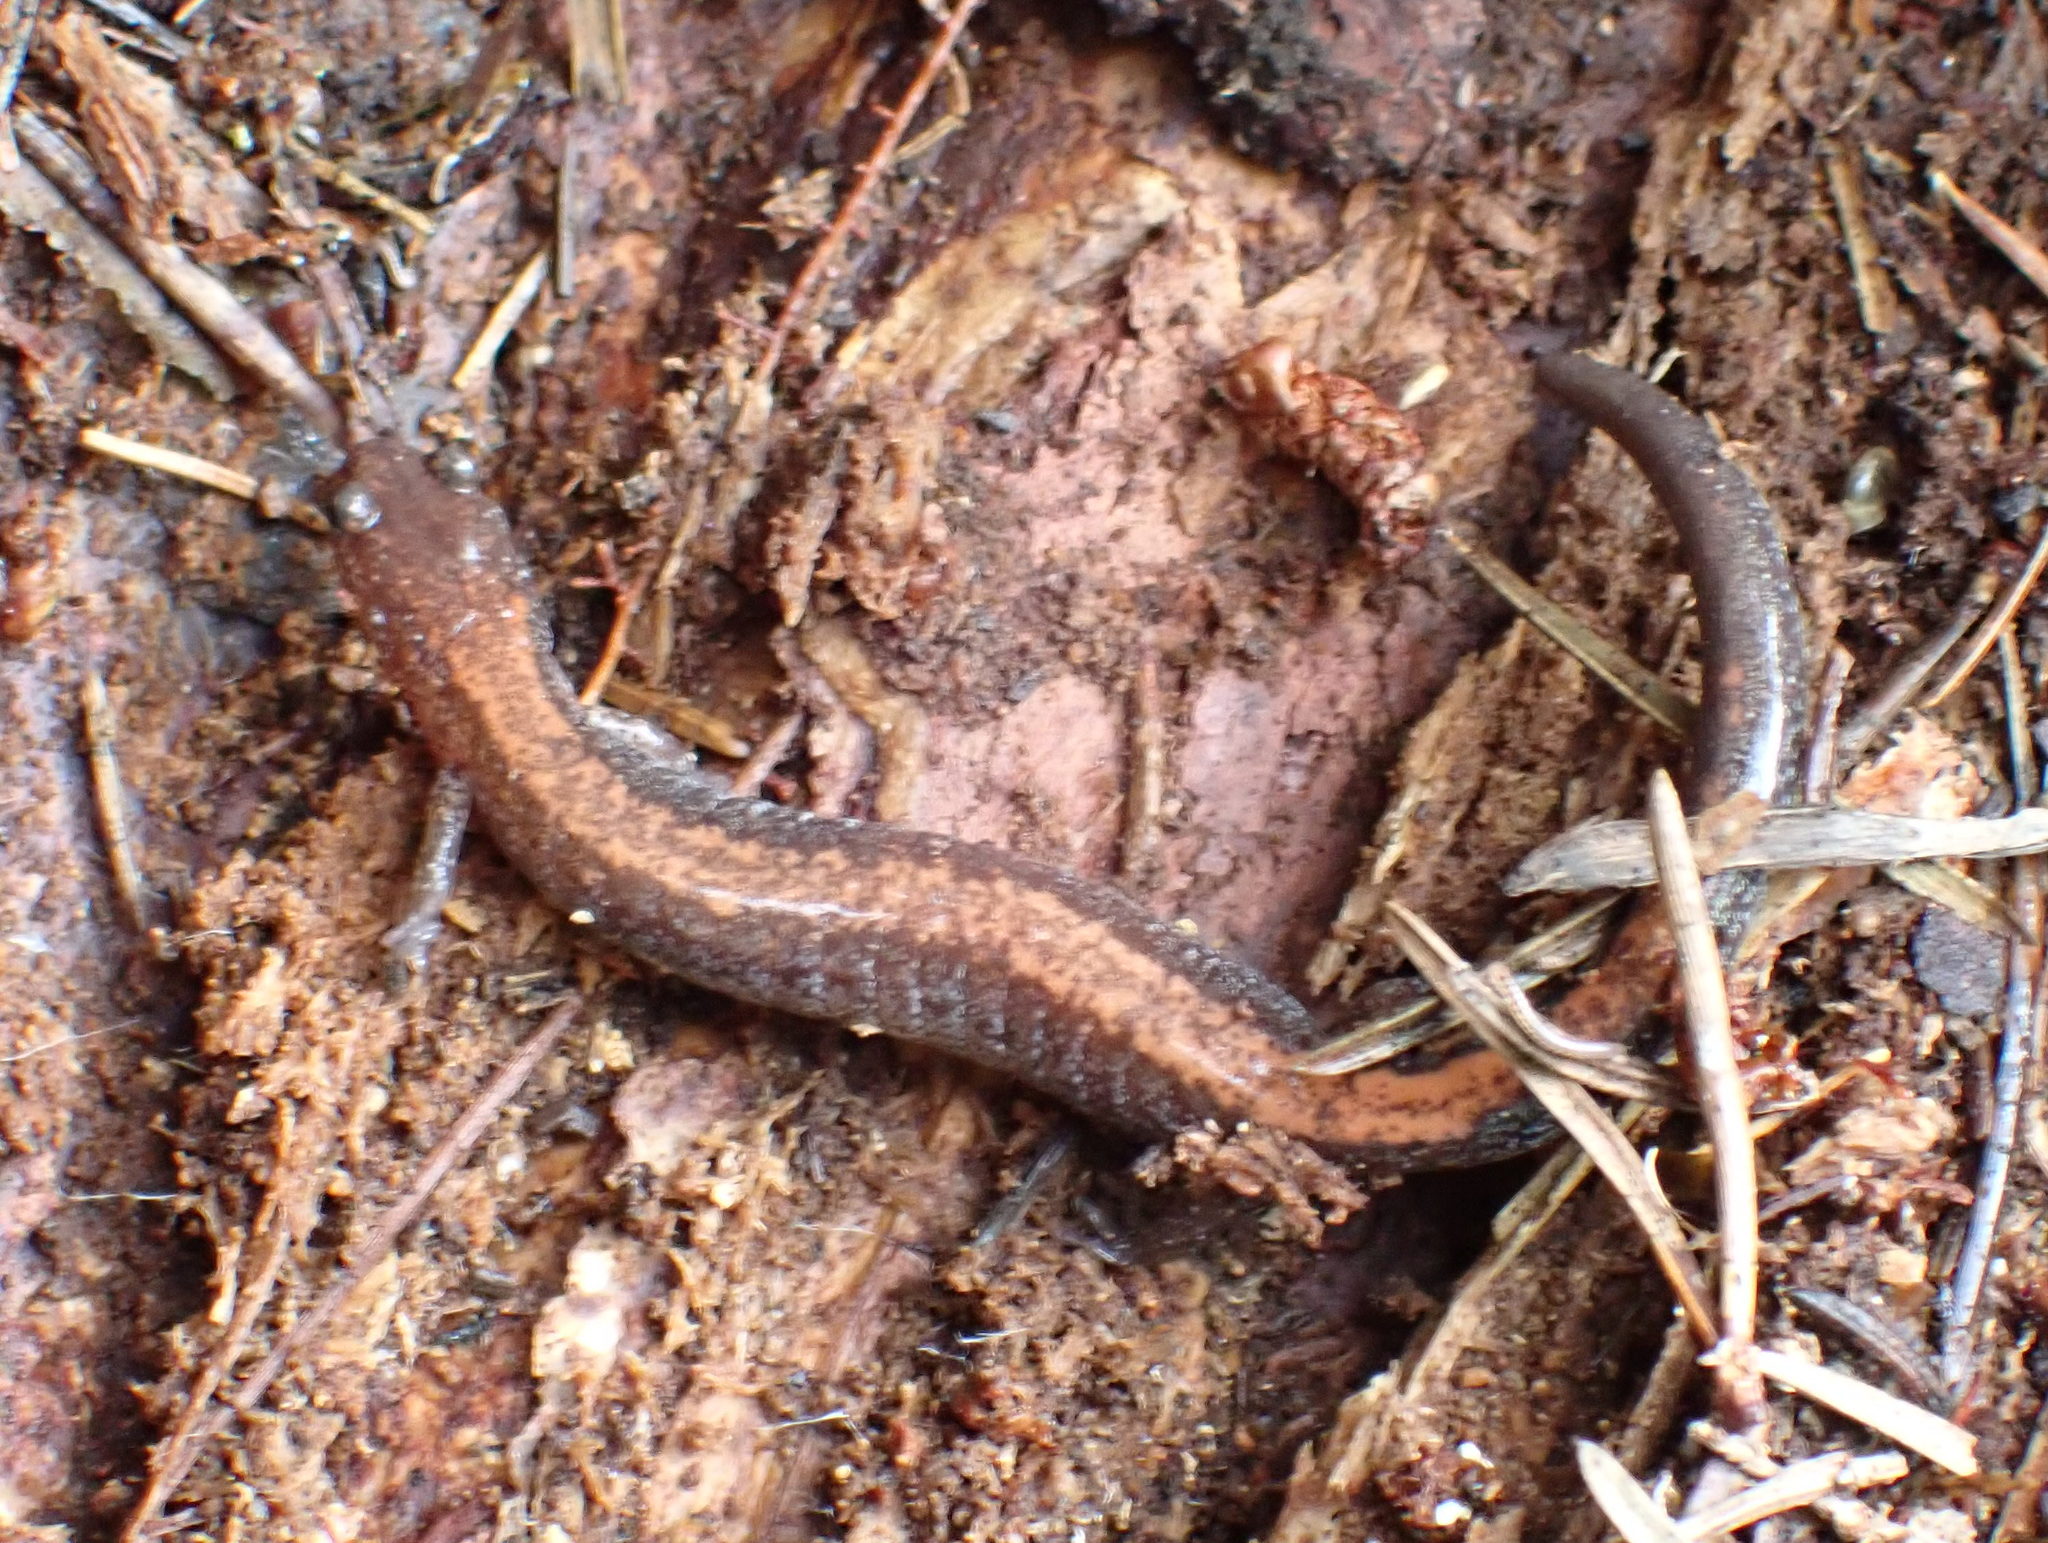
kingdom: Animalia
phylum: Chordata
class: Amphibia
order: Caudata
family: Plethodontidae
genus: Plethodon
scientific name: Plethodon cinereus
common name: Redback salamander
